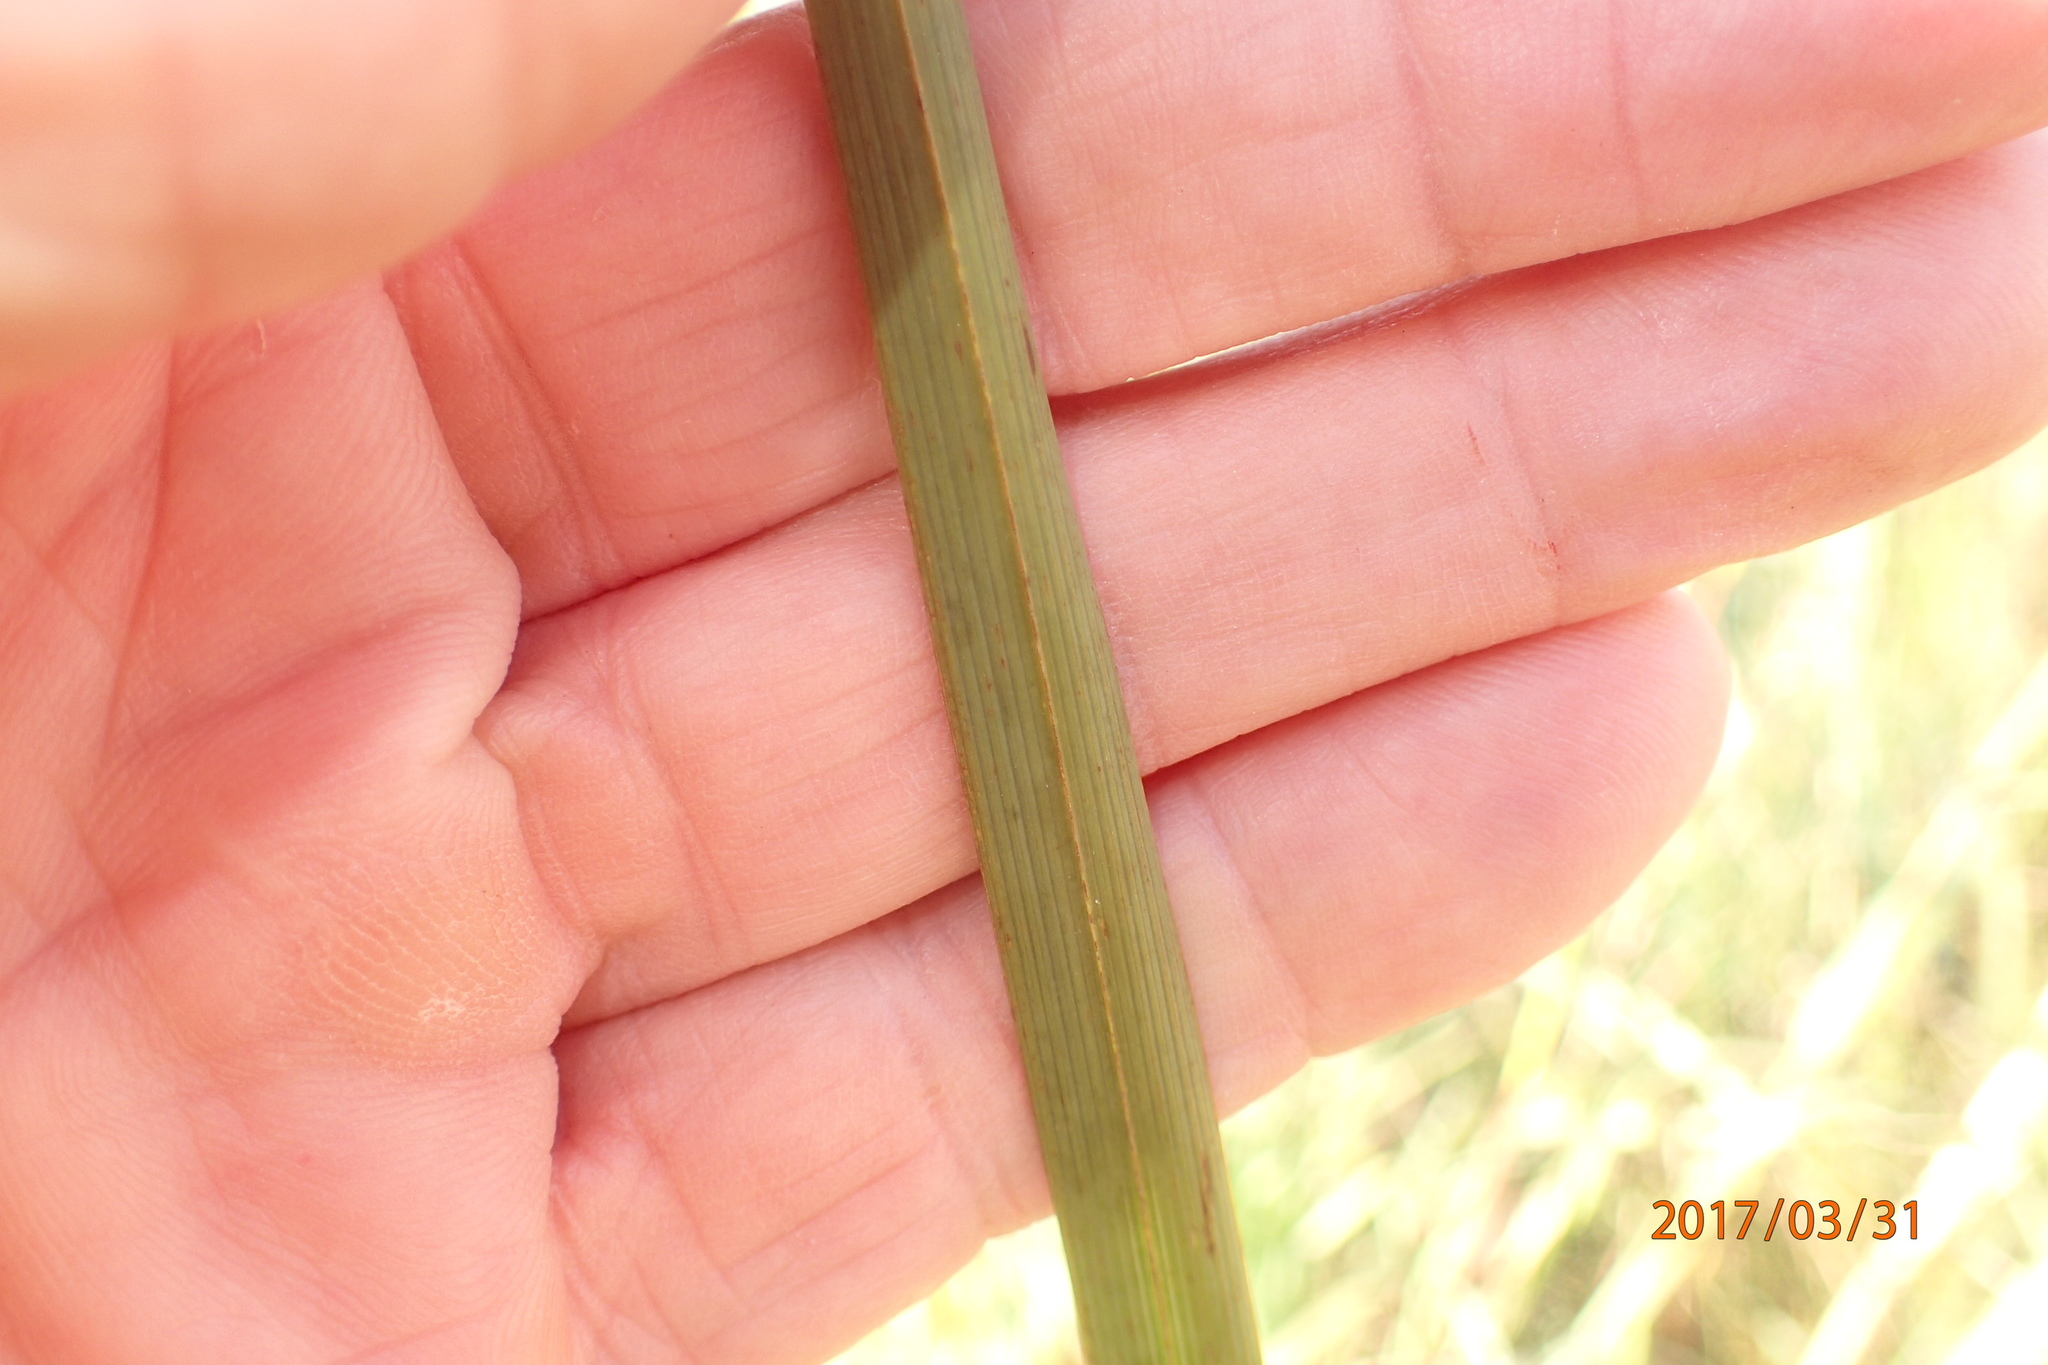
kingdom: Plantae
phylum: Tracheophyta
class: Liliopsida
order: Asparagales
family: Iridaceae
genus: Moraea
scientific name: Moraea spathulata
